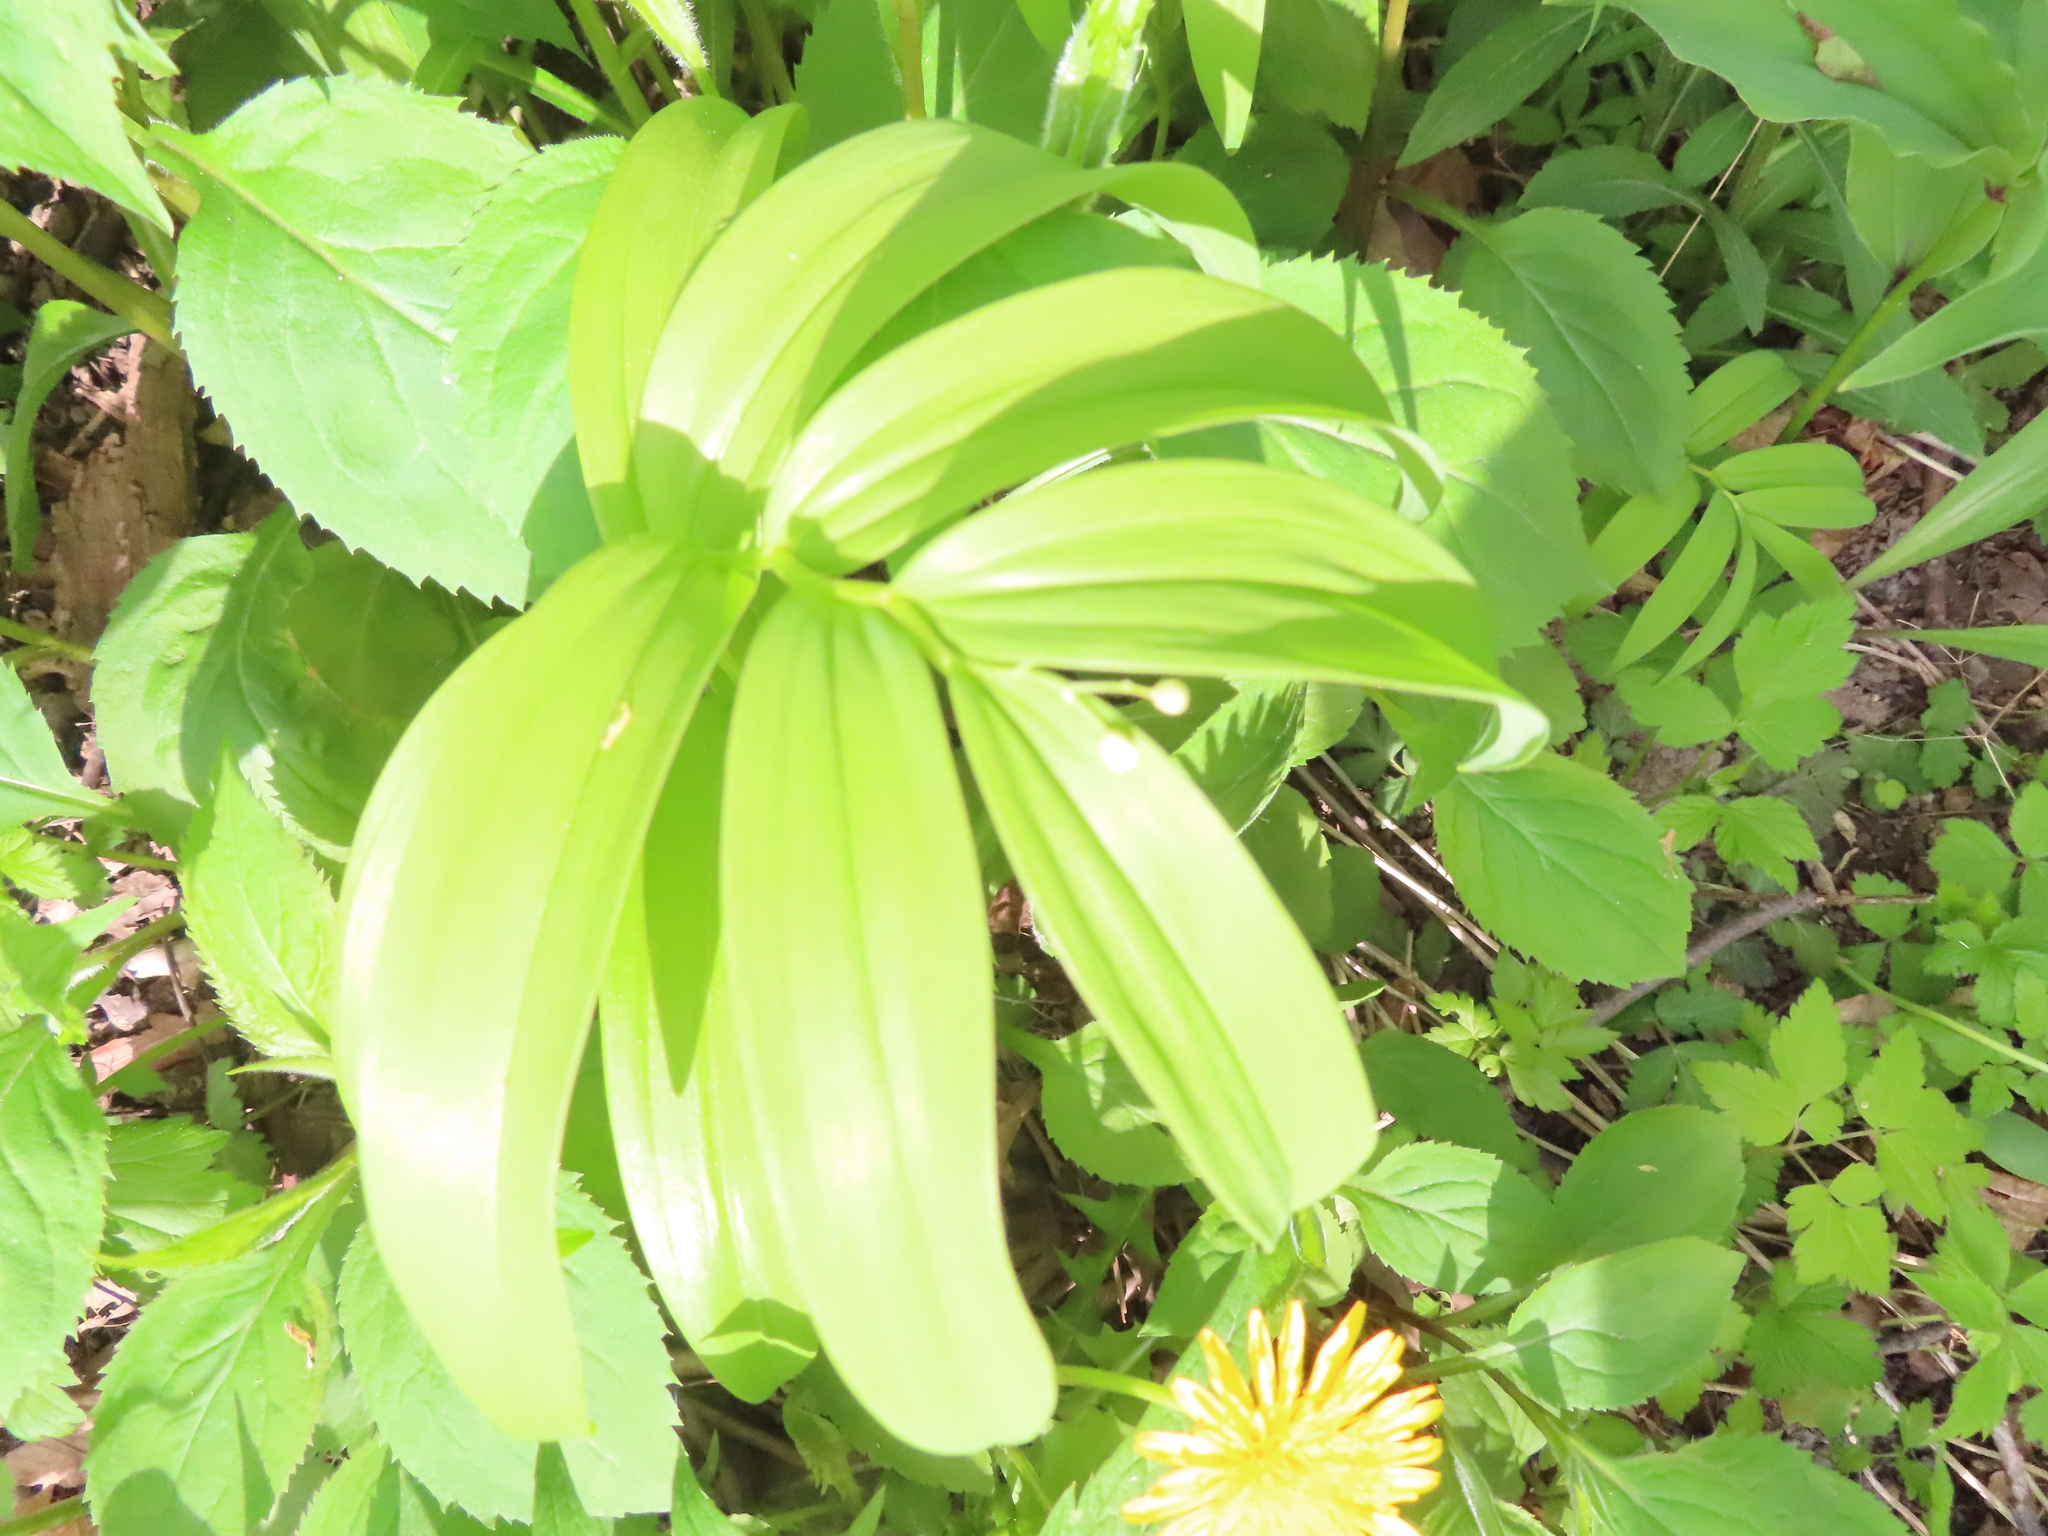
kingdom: Plantae
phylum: Tracheophyta
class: Liliopsida
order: Asparagales
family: Asparagaceae
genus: Maianthemum
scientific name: Maianthemum stellatum
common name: Little false solomon's seal
